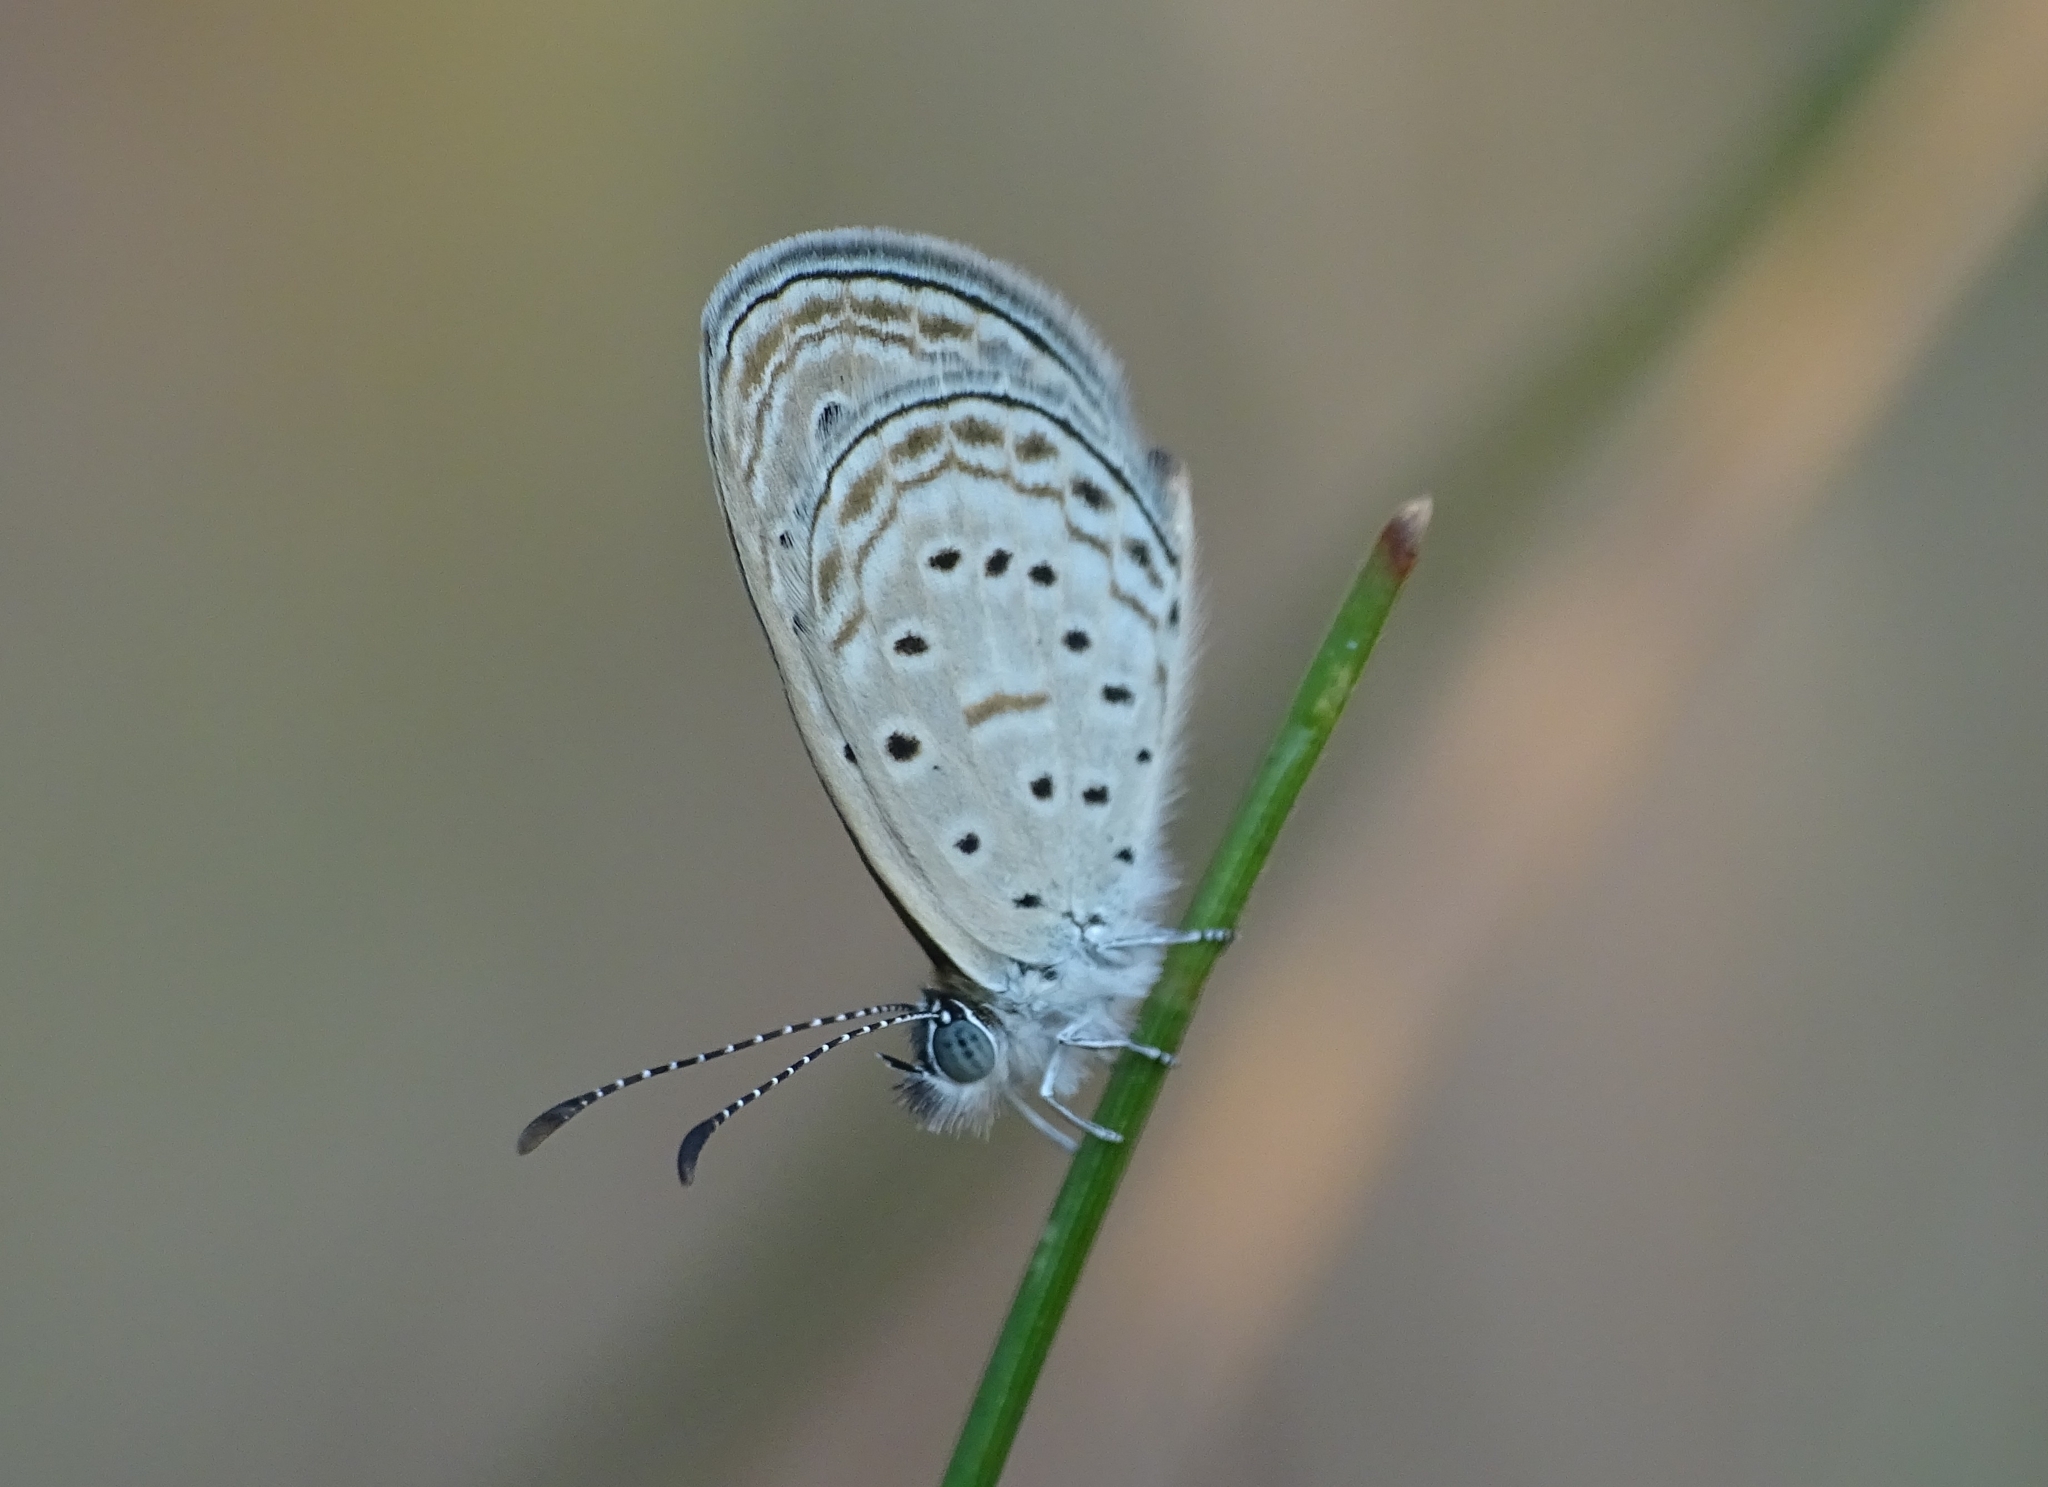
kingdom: Animalia
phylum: Arthropoda
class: Insecta
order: Lepidoptera
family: Lycaenidae
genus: Zizula
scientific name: Zizula hylax
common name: Gaika blue
